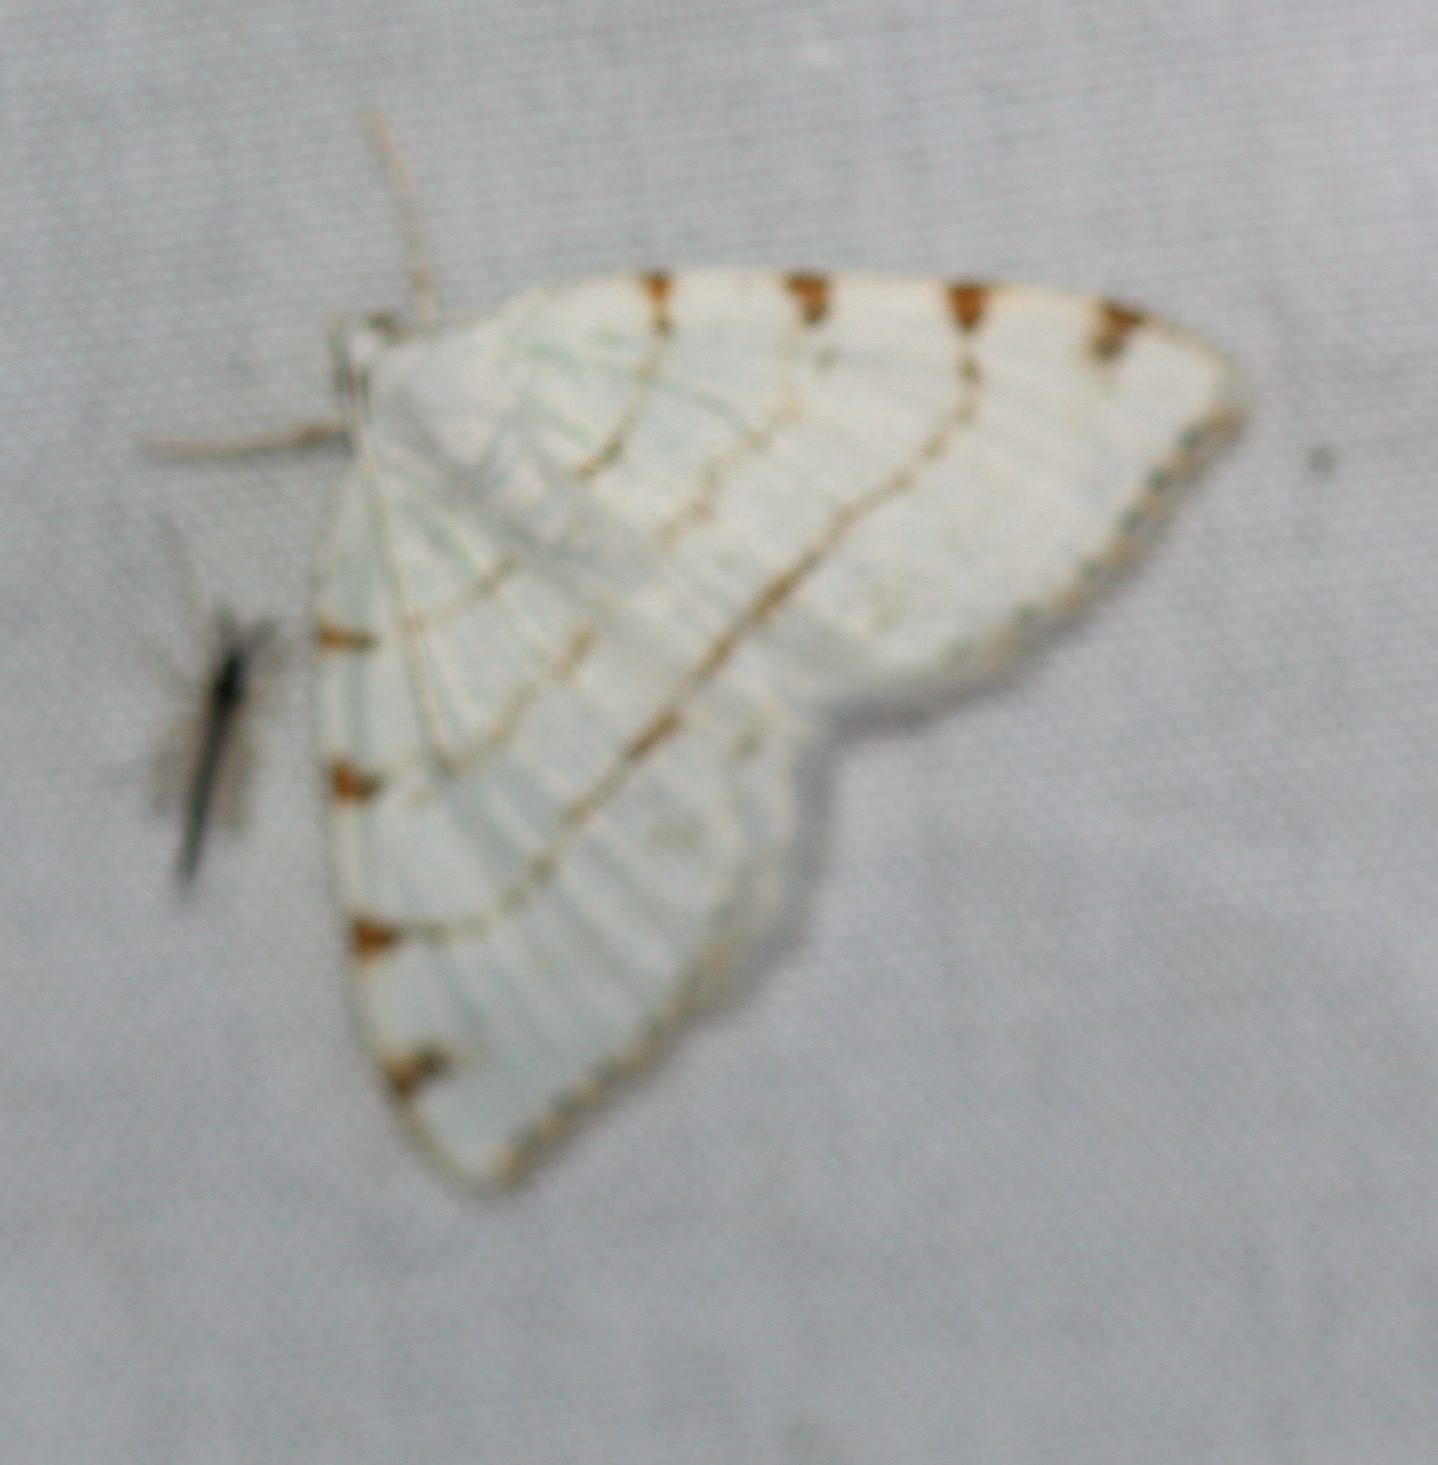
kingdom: Animalia
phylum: Arthropoda
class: Insecta
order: Lepidoptera
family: Geometridae
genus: Macaria
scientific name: Macaria pustularia
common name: Lesser maple spanworm moth
